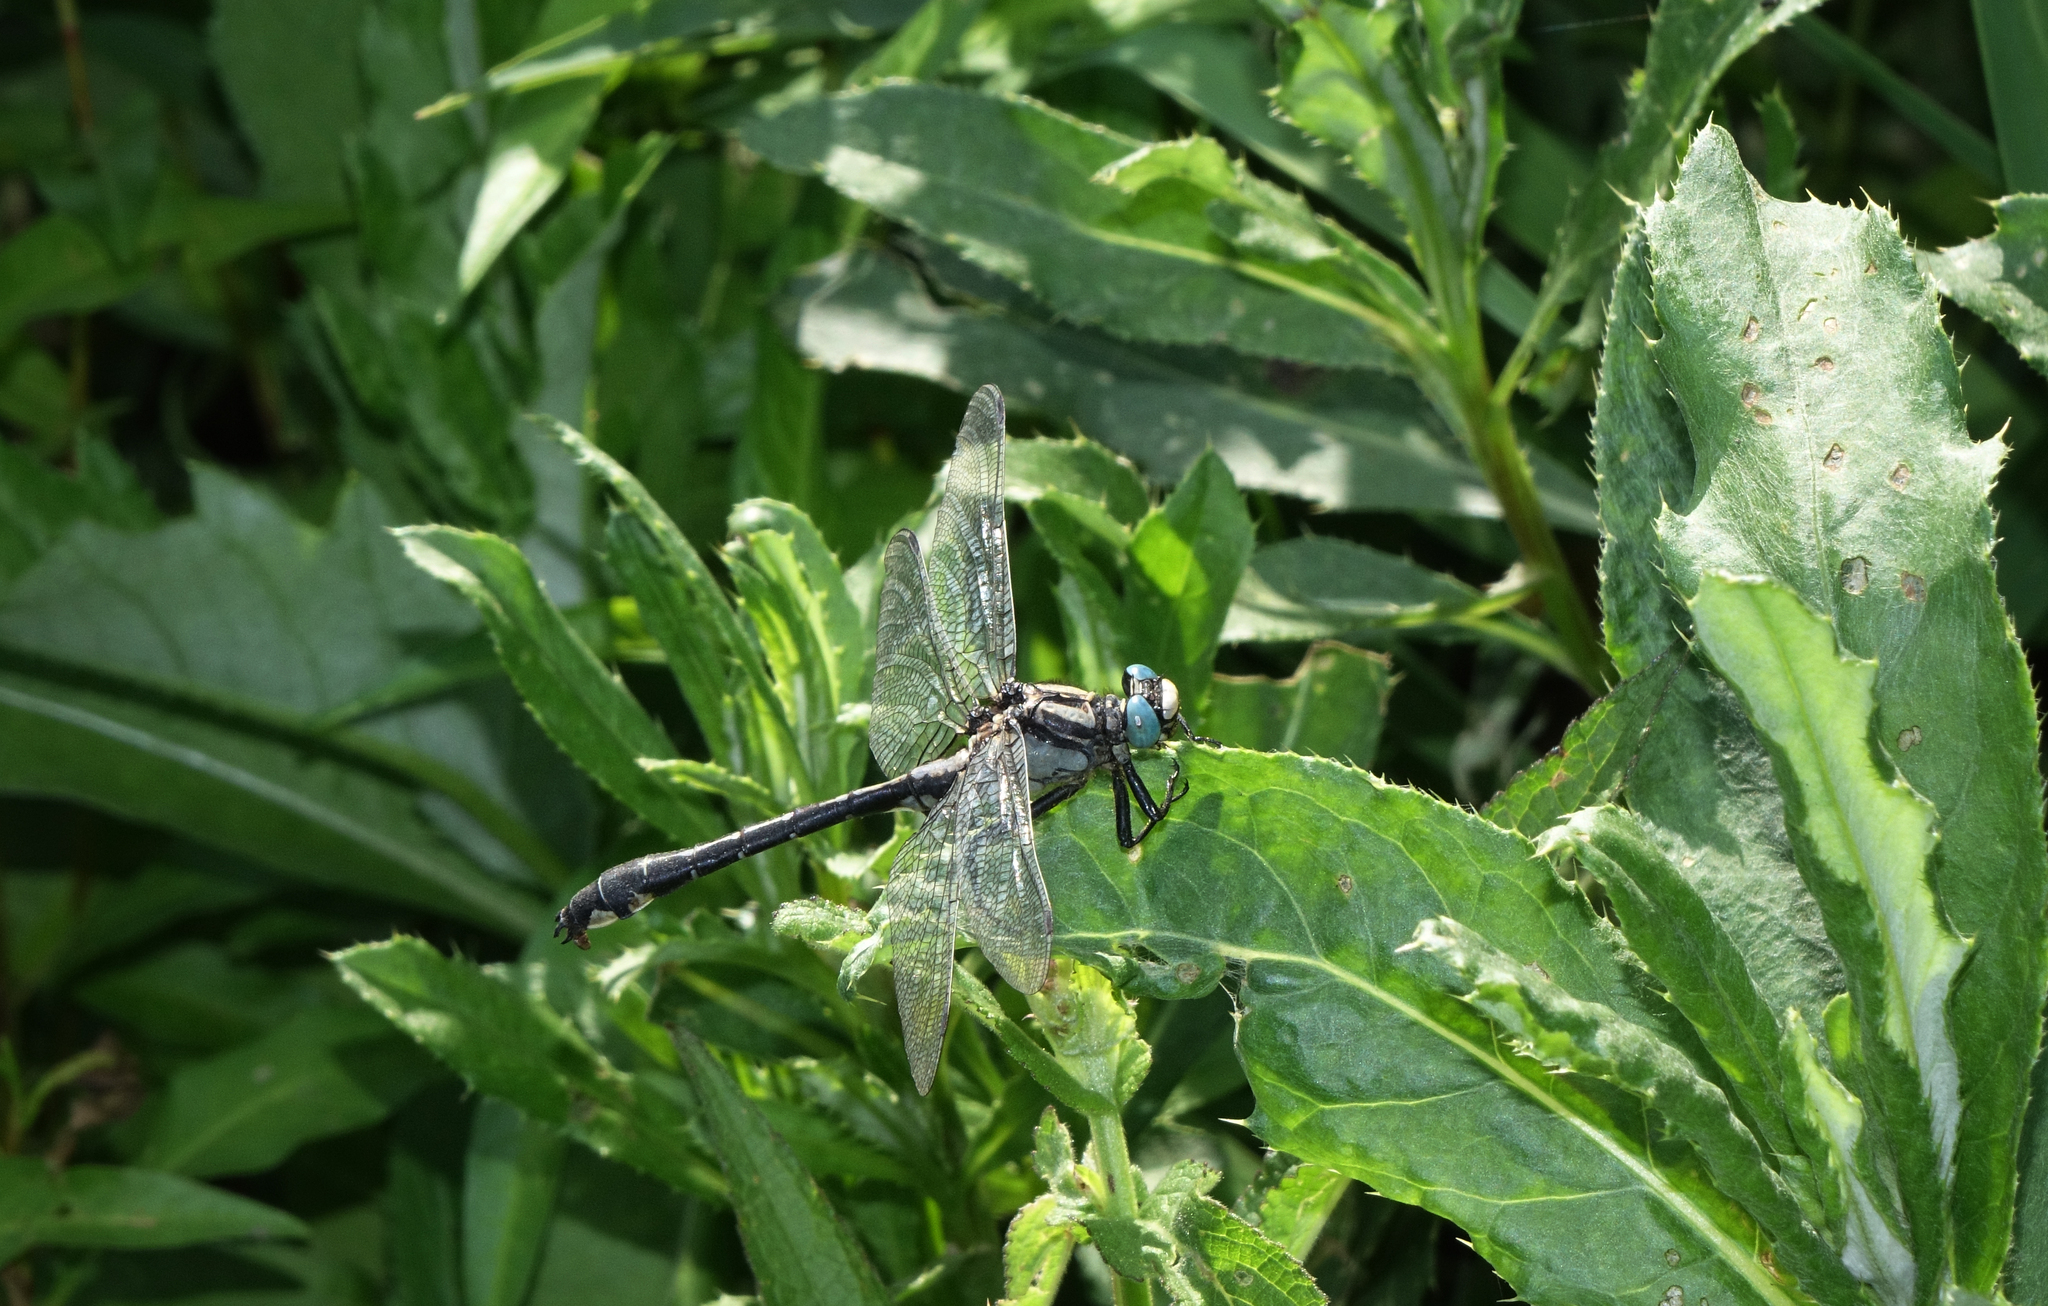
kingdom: Animalia
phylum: Arthropoda
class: Insecta
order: Odonata
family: Gomphidae
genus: Gomphus
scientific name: Gomphus vulgatissimus
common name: Club-tailed dragonfly
